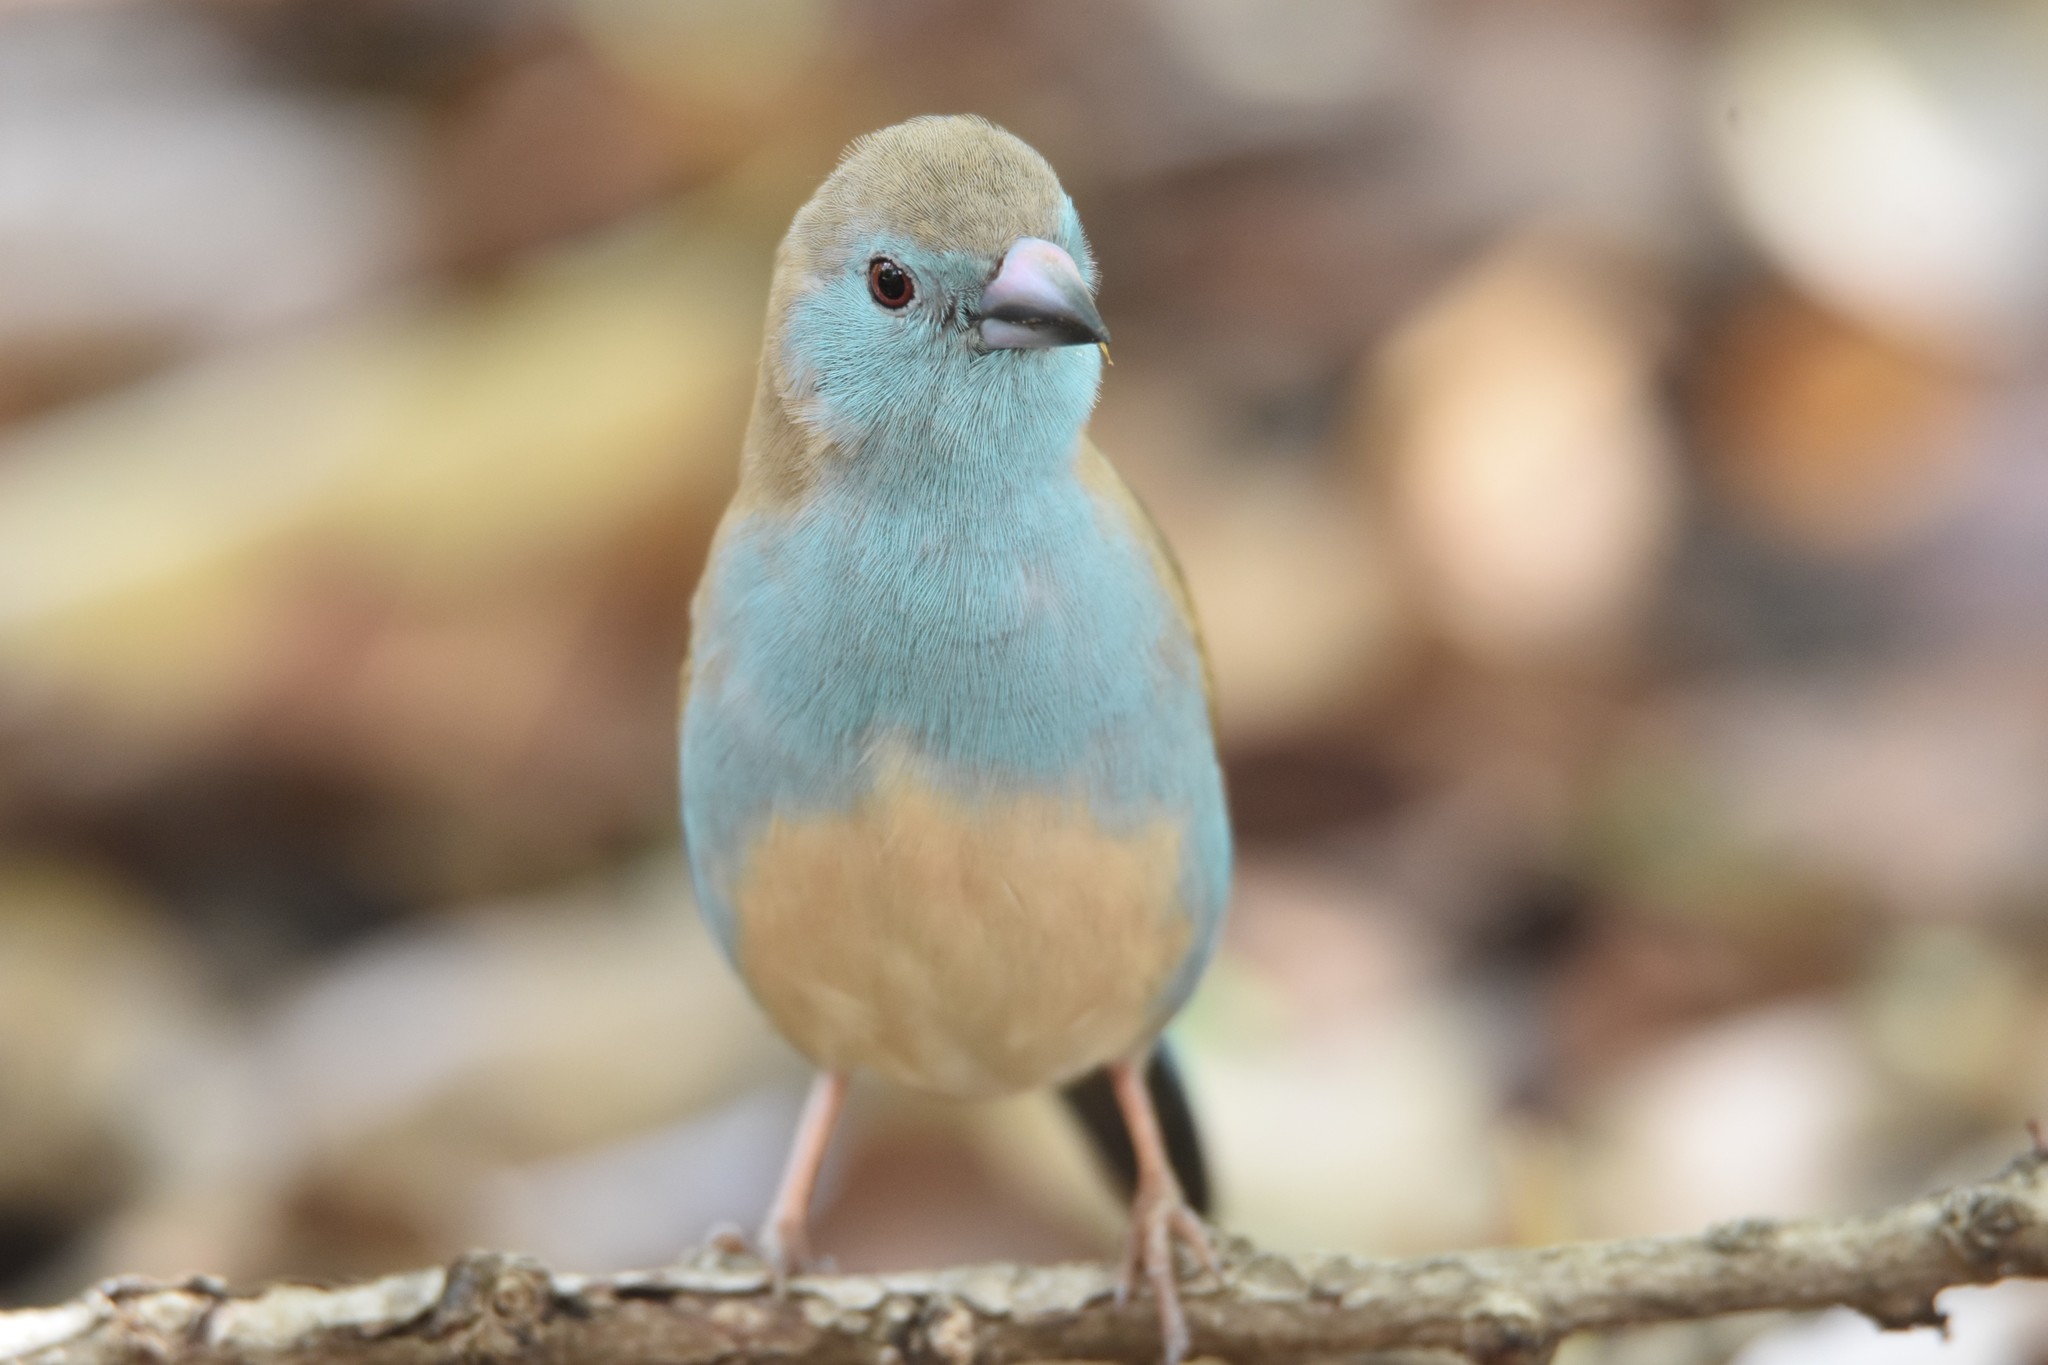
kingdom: Animalia
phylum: Chordata
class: Aves
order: Passeriformes
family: Estrildidae
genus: Uraeginthus
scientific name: Uraeginthus angolensis
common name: Blue waxbill
